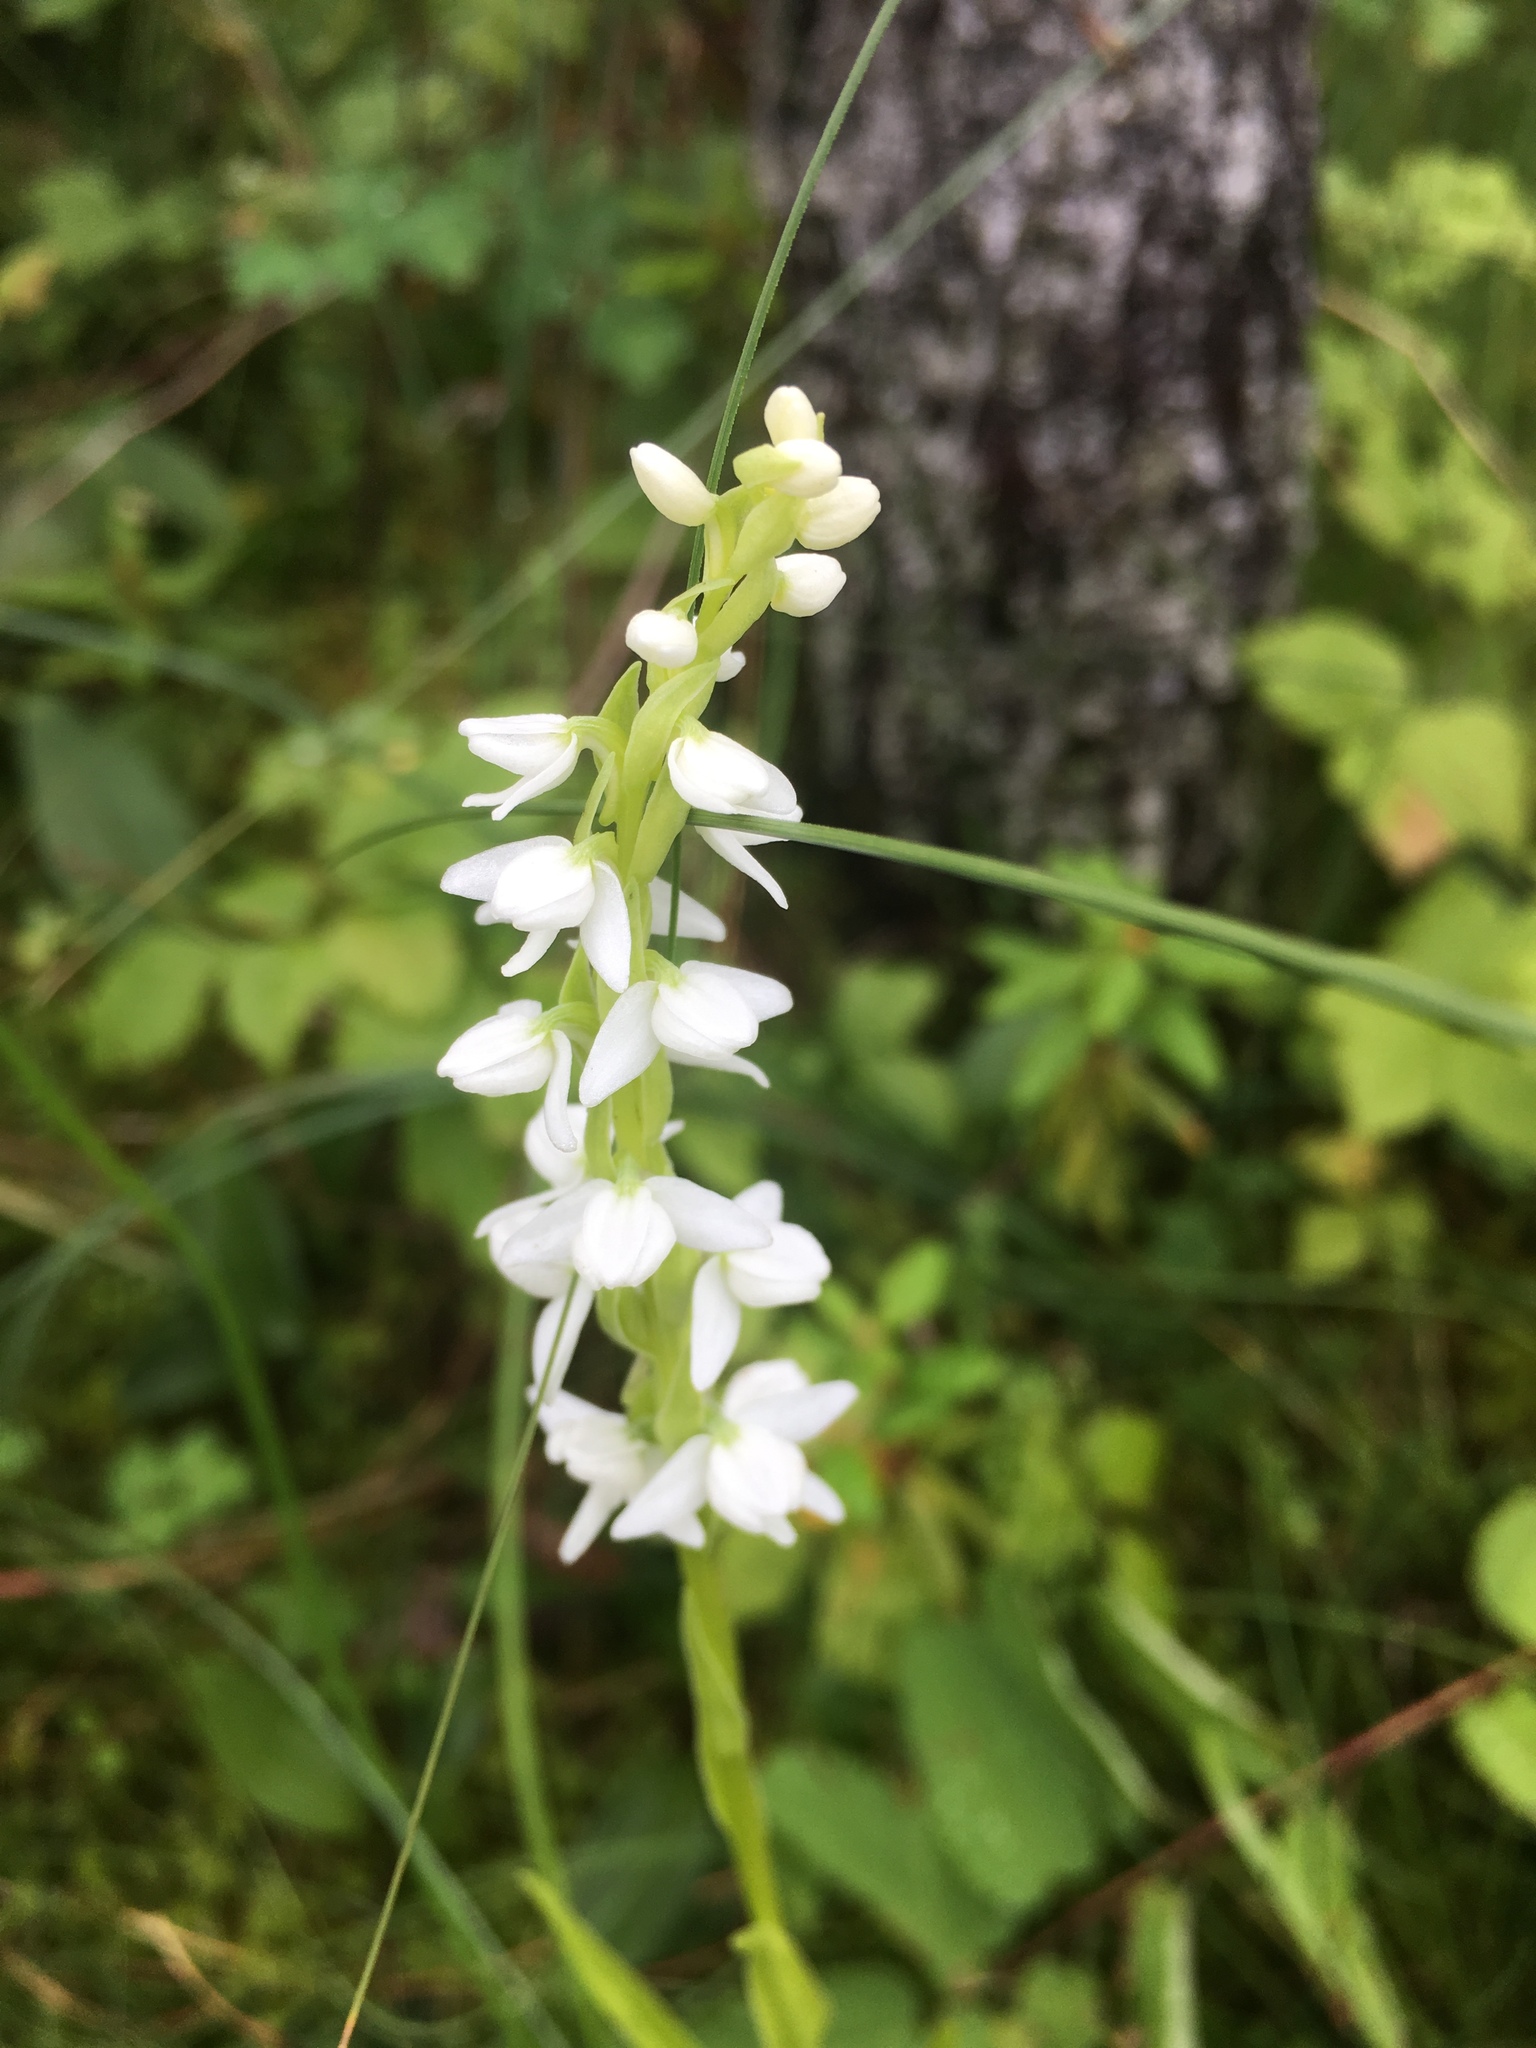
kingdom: Plantae
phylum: Tracheophyta
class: Liliopsida
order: Asparagales
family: Orchidaceae
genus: Platanthera
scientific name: Platanthera dilatata
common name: Bog candles
